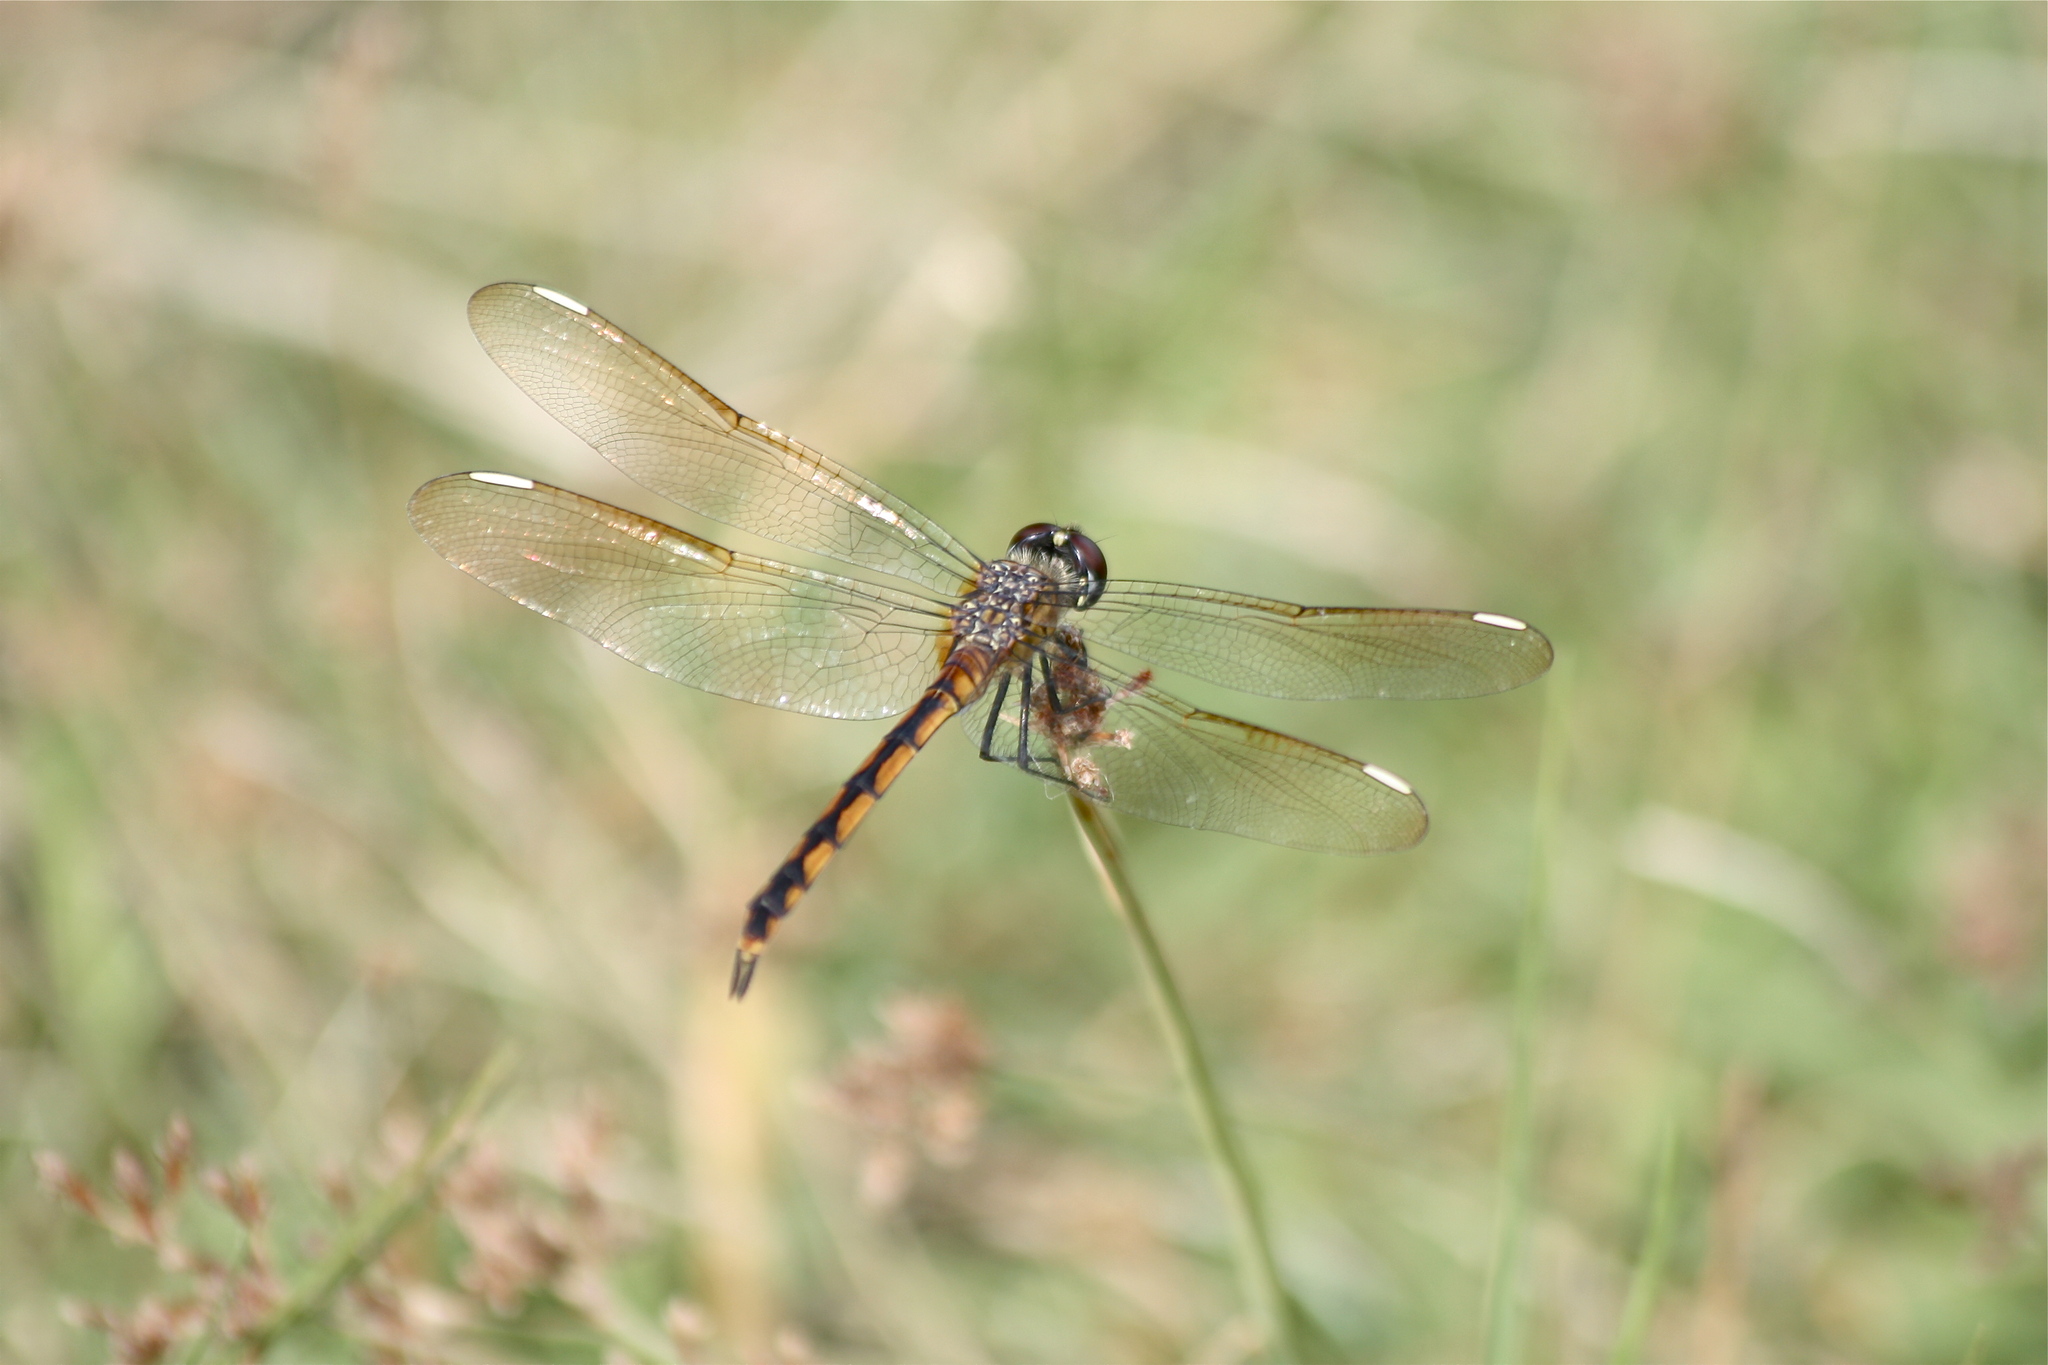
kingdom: Animalia
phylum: Arthropoda
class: Insecta
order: Odonata
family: Libellulidae
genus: Brachymesia
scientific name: Brachymesia gravida
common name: Four-spotted pennant
